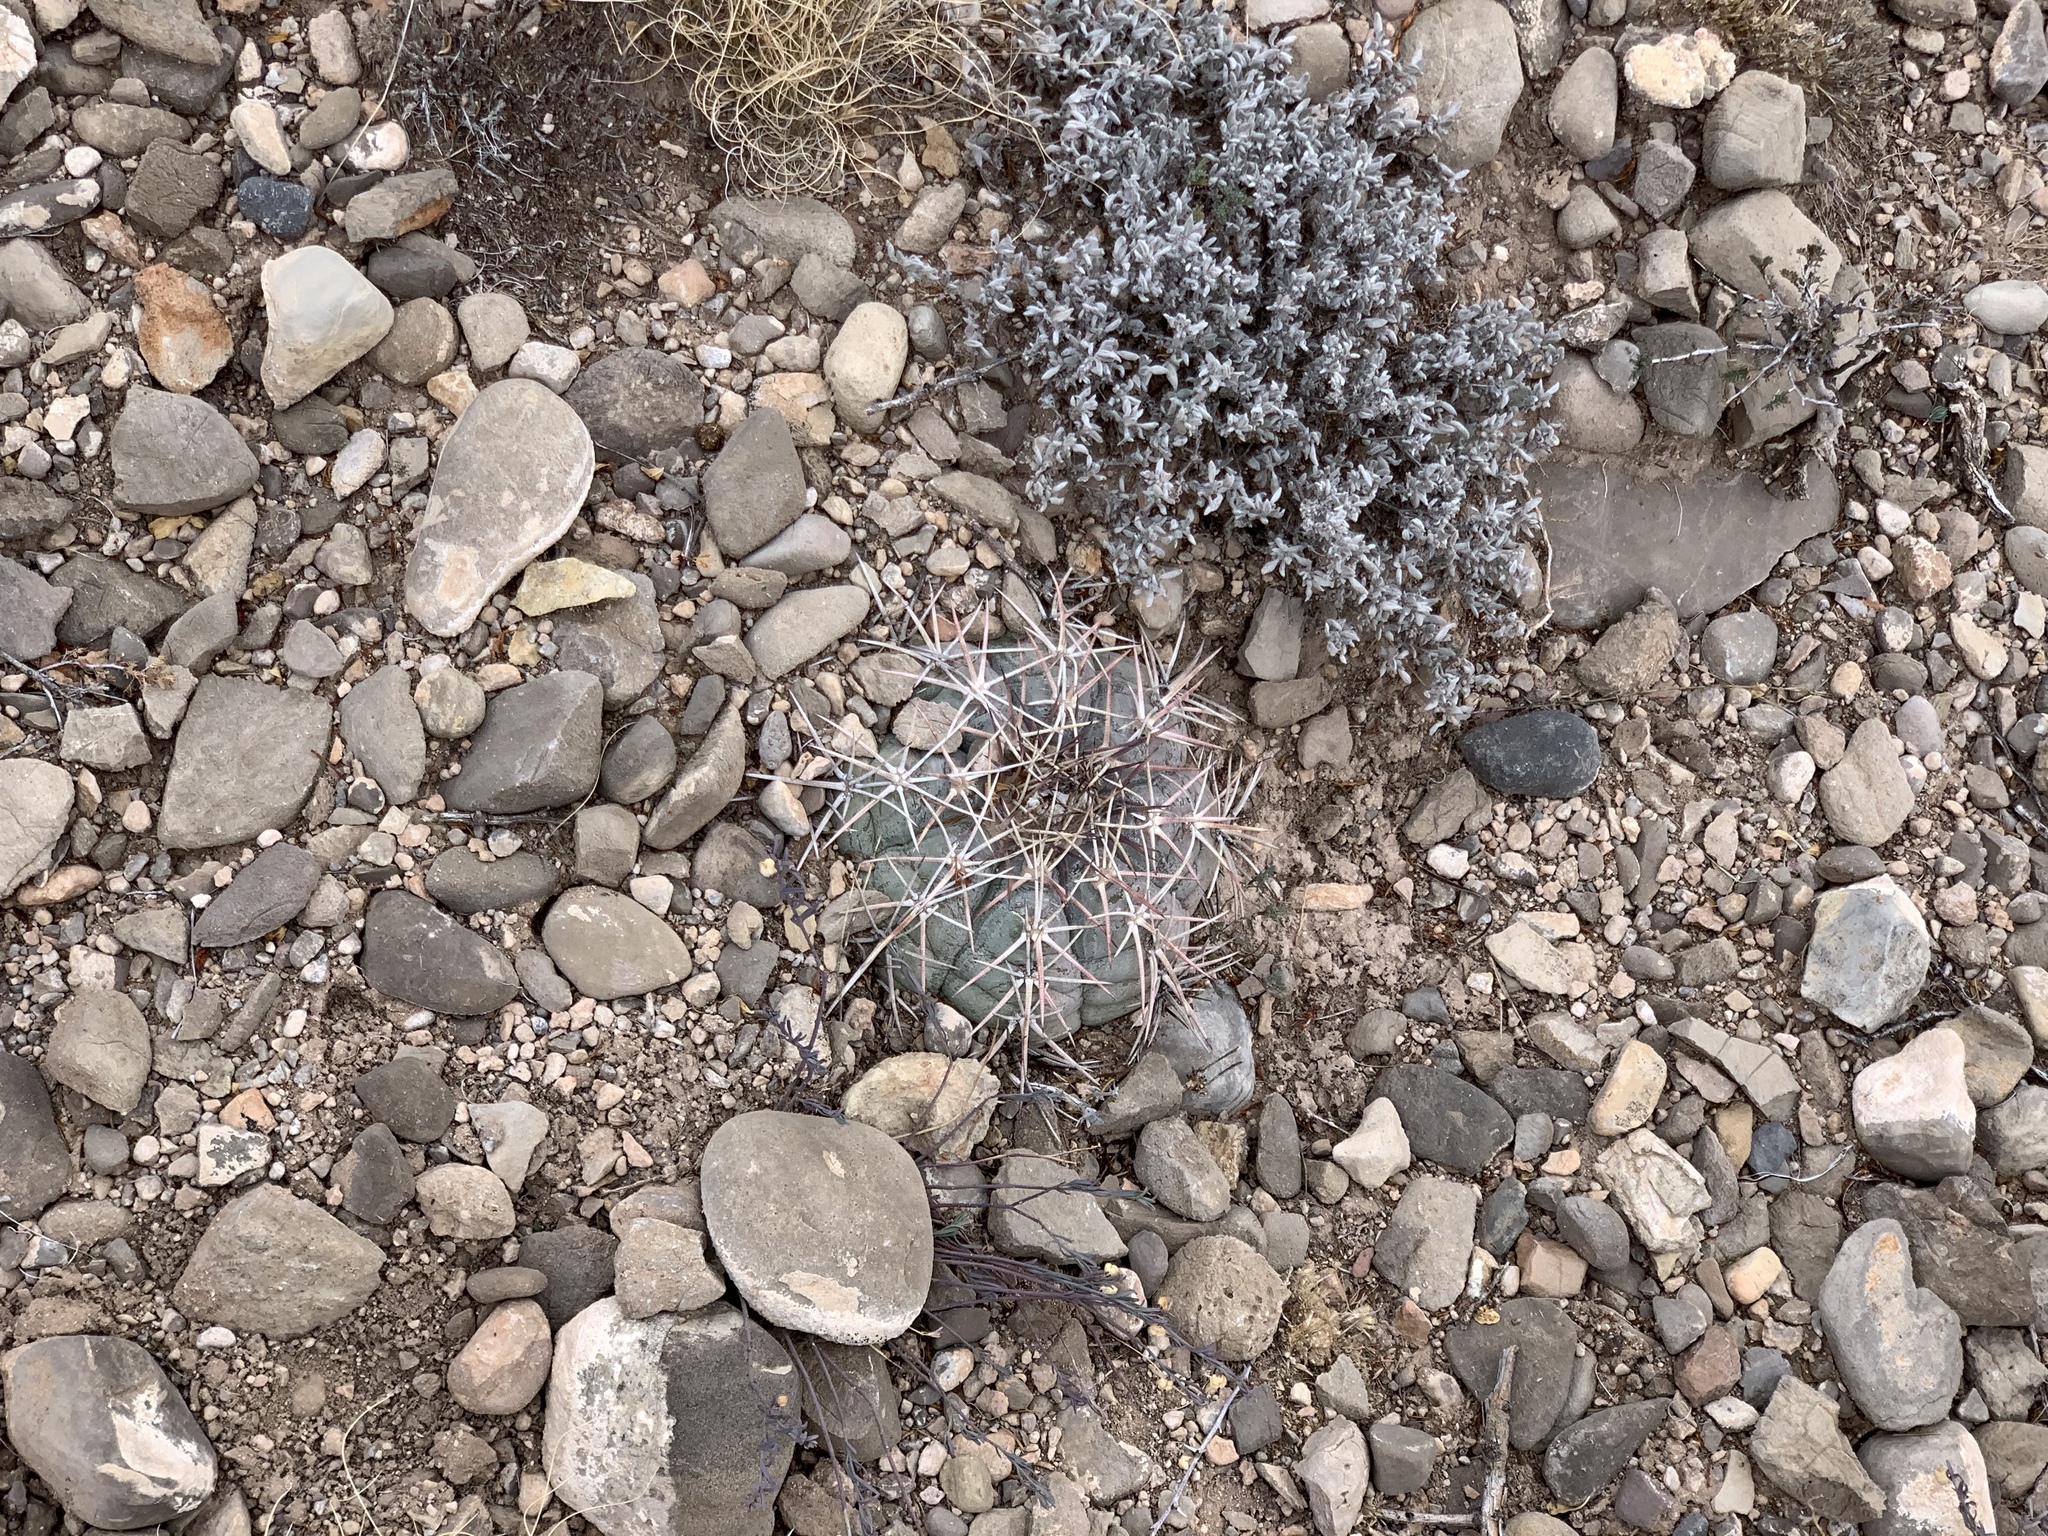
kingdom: Plantae
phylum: Tracheophyta
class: Magnoliopsida
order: Caryophyllales
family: Cactaceae
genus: Echinocactus
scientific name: Echinocactus horizonthalonius
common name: Devilshead
